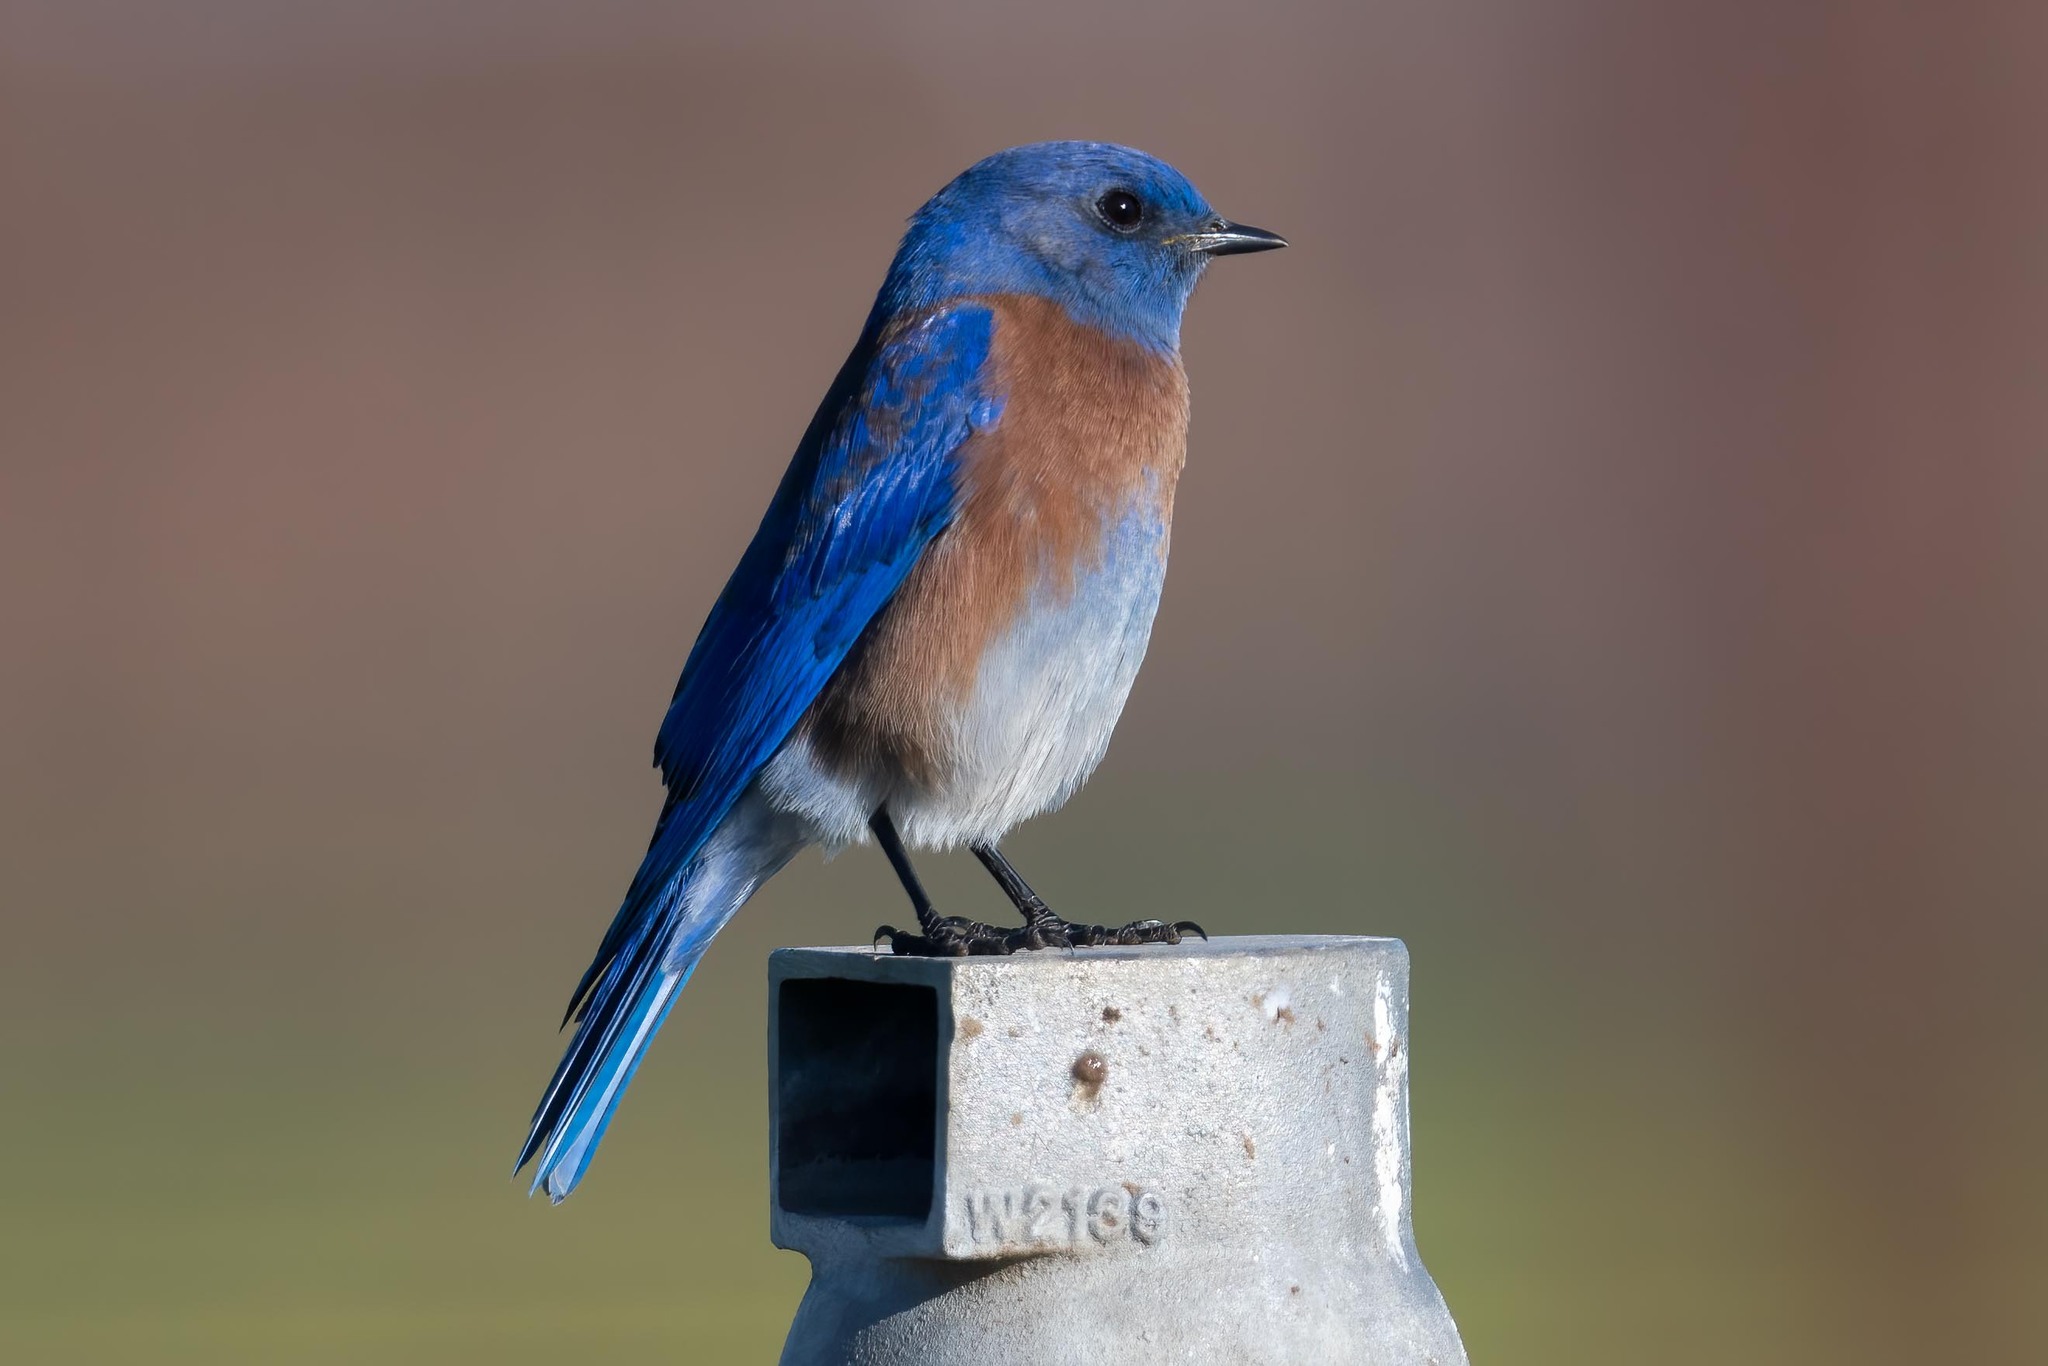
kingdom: Animalia
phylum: Chordata
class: Aves
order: Passeriformes
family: Turdidae
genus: Sialia
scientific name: Sialia mexicana
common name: Western bluebird
